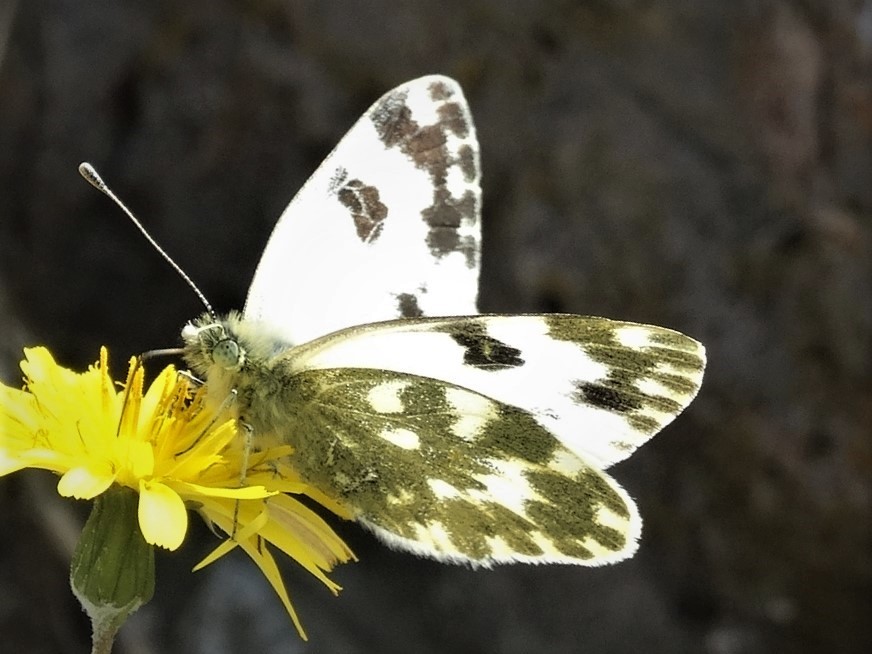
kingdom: Animalia
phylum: Arthropoda
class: Insecta
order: Lepidoptera
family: Pieridae
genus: Pontia
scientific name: Pontia daplidice
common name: Bath white
